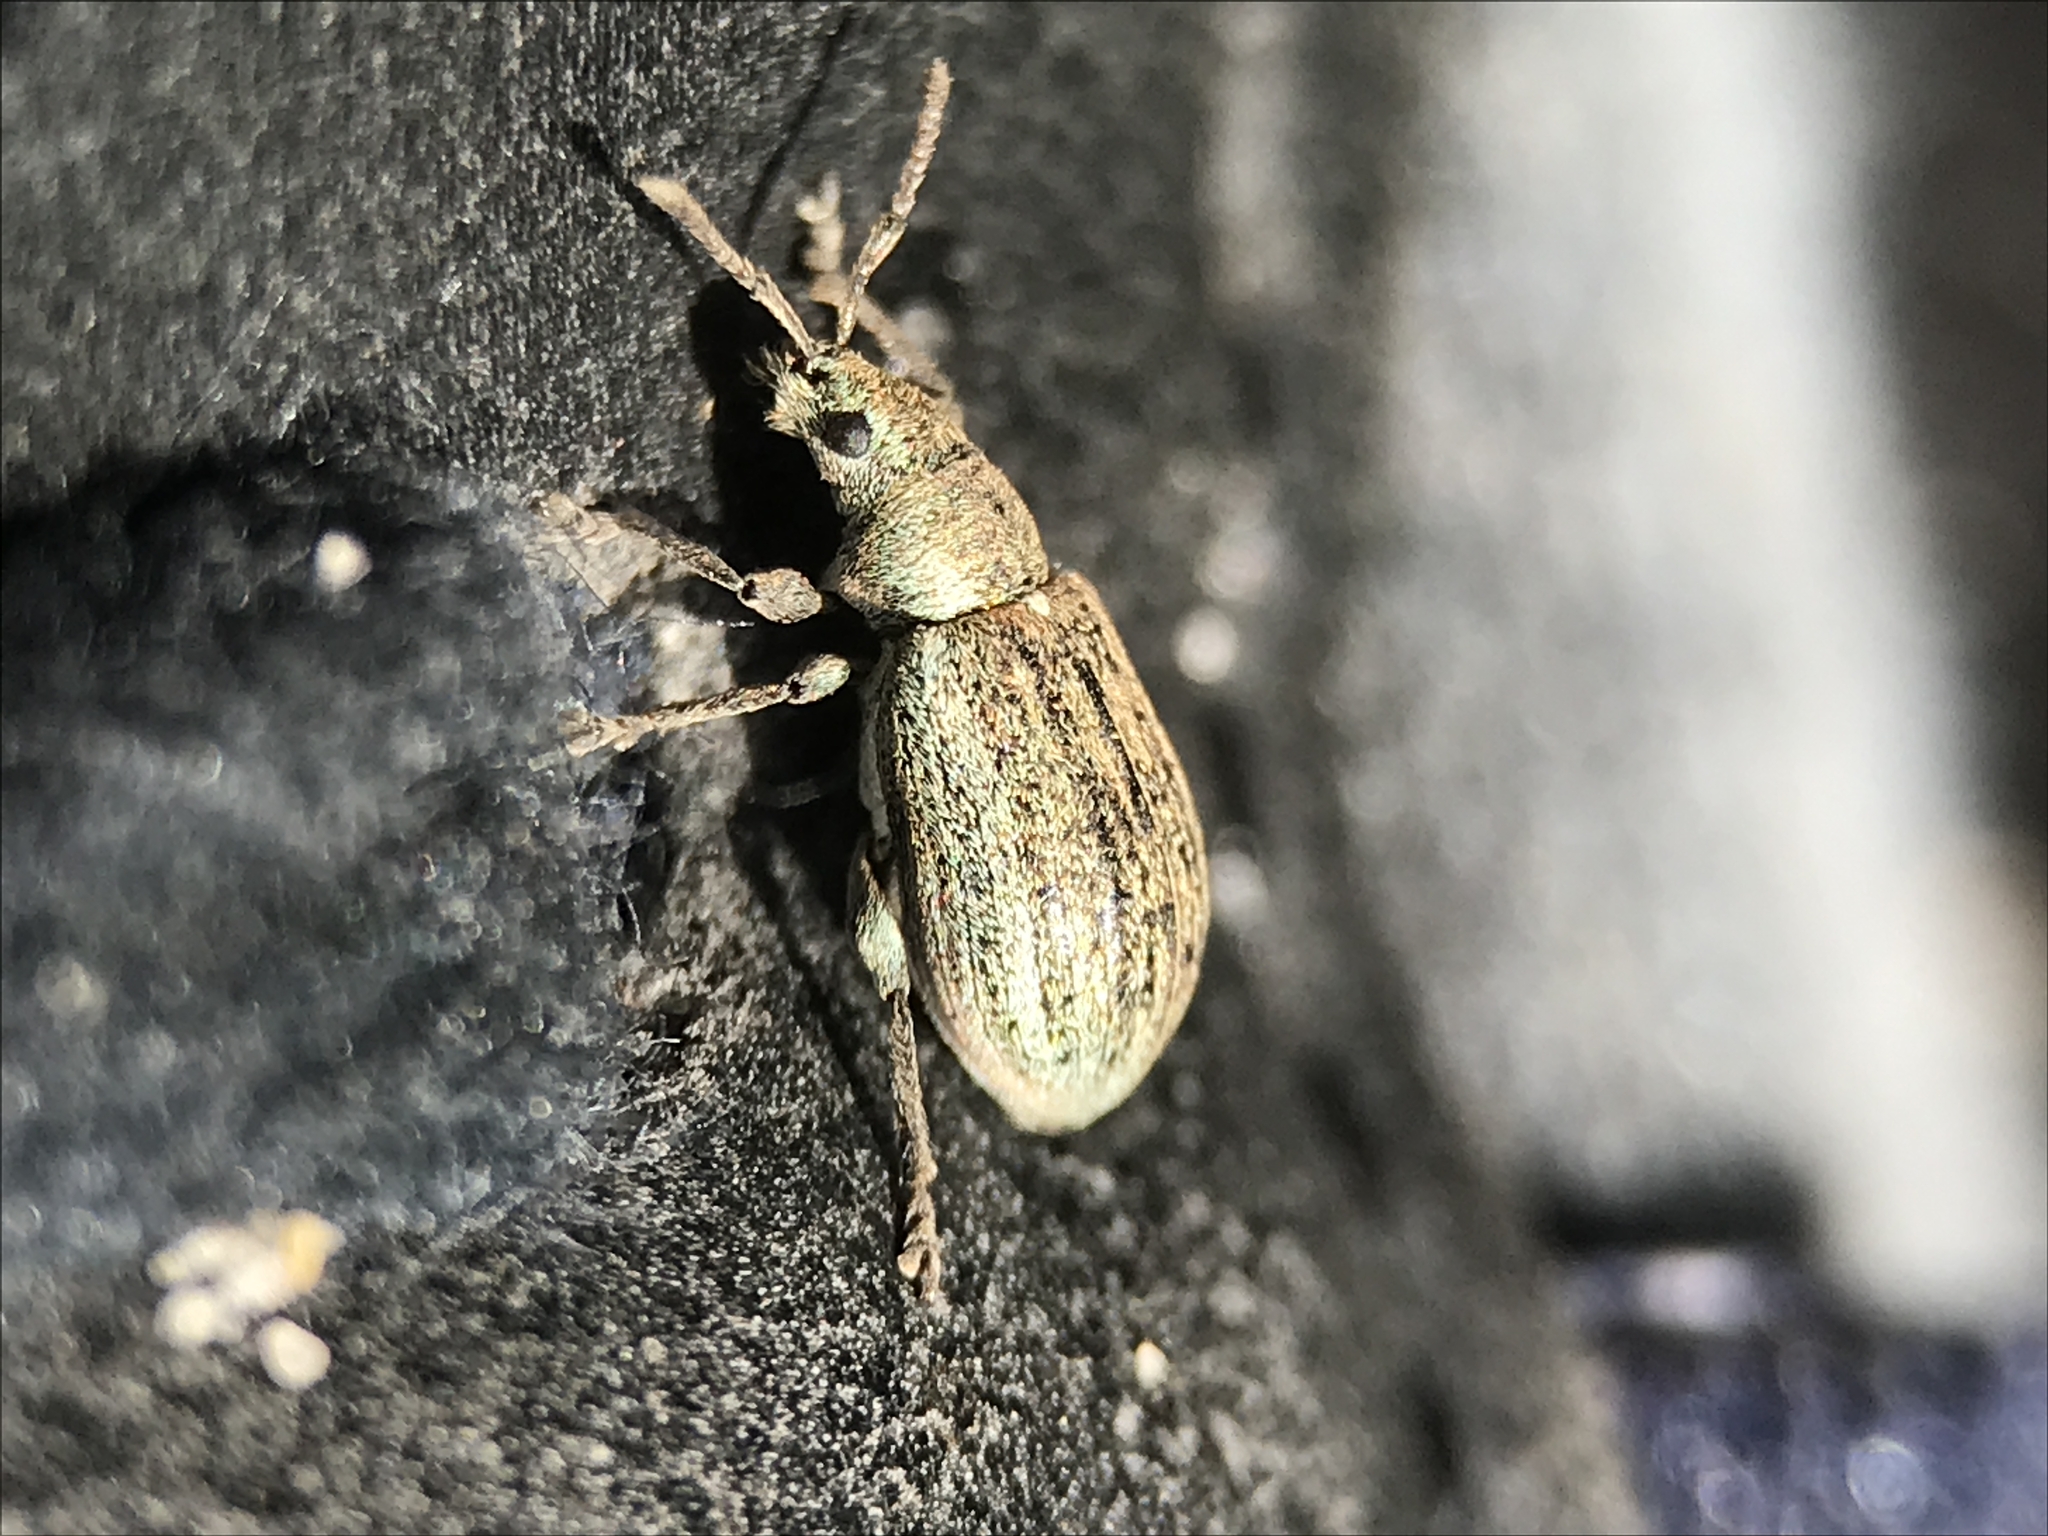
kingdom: Animalia
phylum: Arthropoda
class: Insecta
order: Coleoptera
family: Curculionidae
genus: Phyllobius
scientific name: Phyllobius pyri
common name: Common leaf weevil
